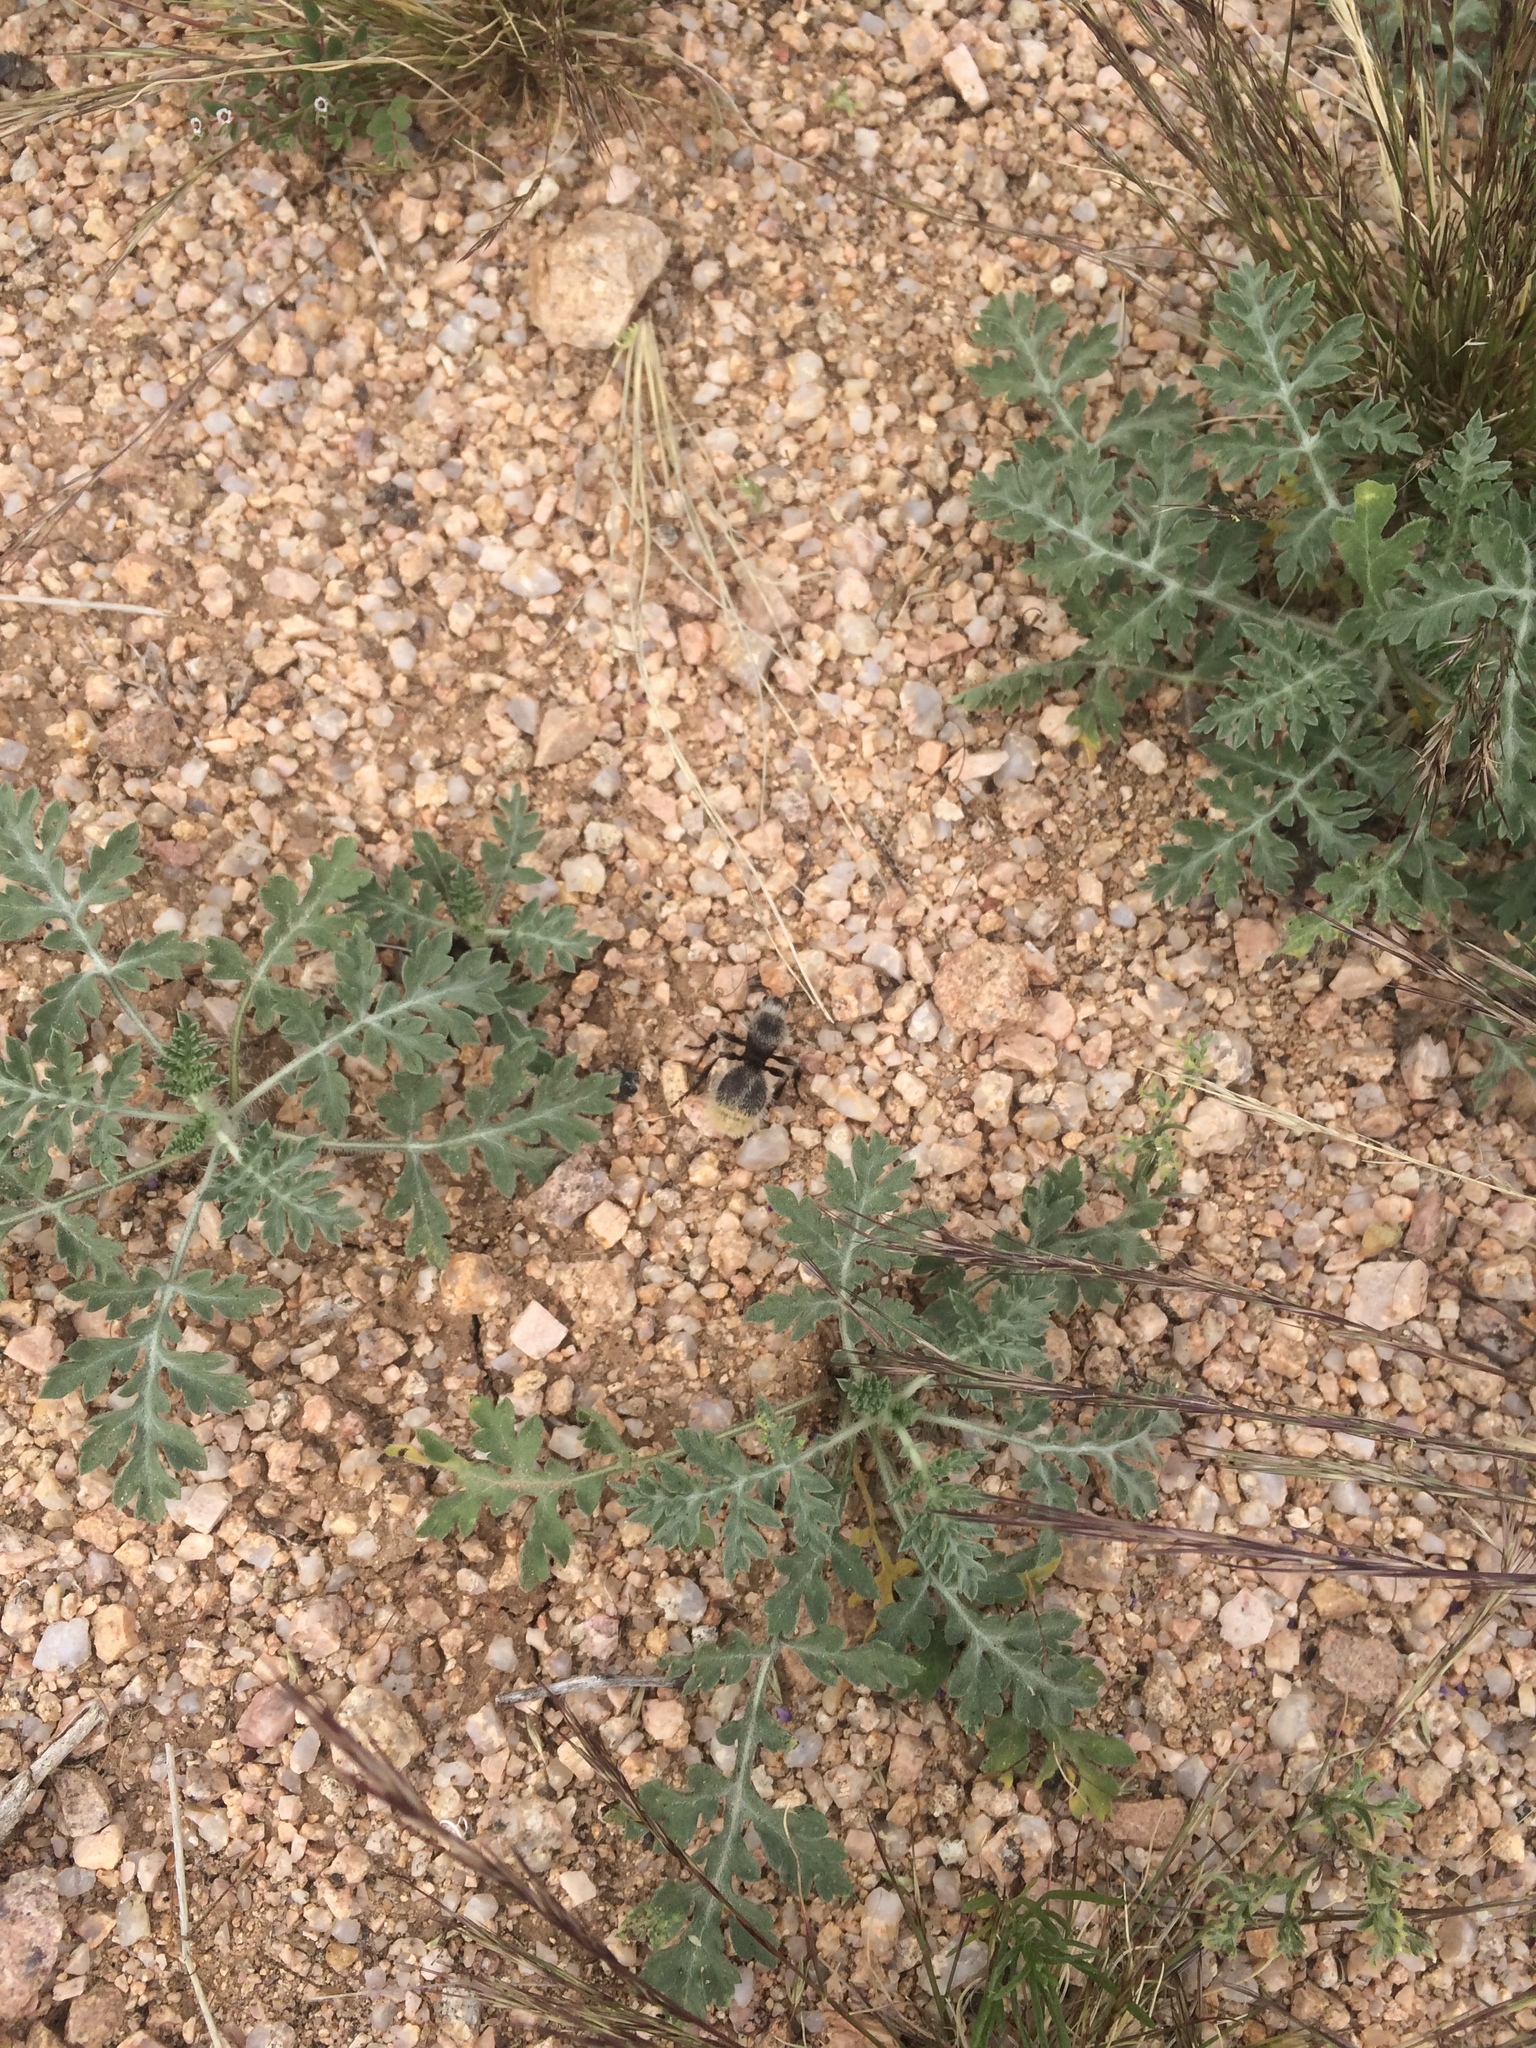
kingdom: Animalia
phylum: Arthropoda
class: Insecta
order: Hymenoptera
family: Mutillidae
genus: Dasymutilla
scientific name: Dasymutilla
